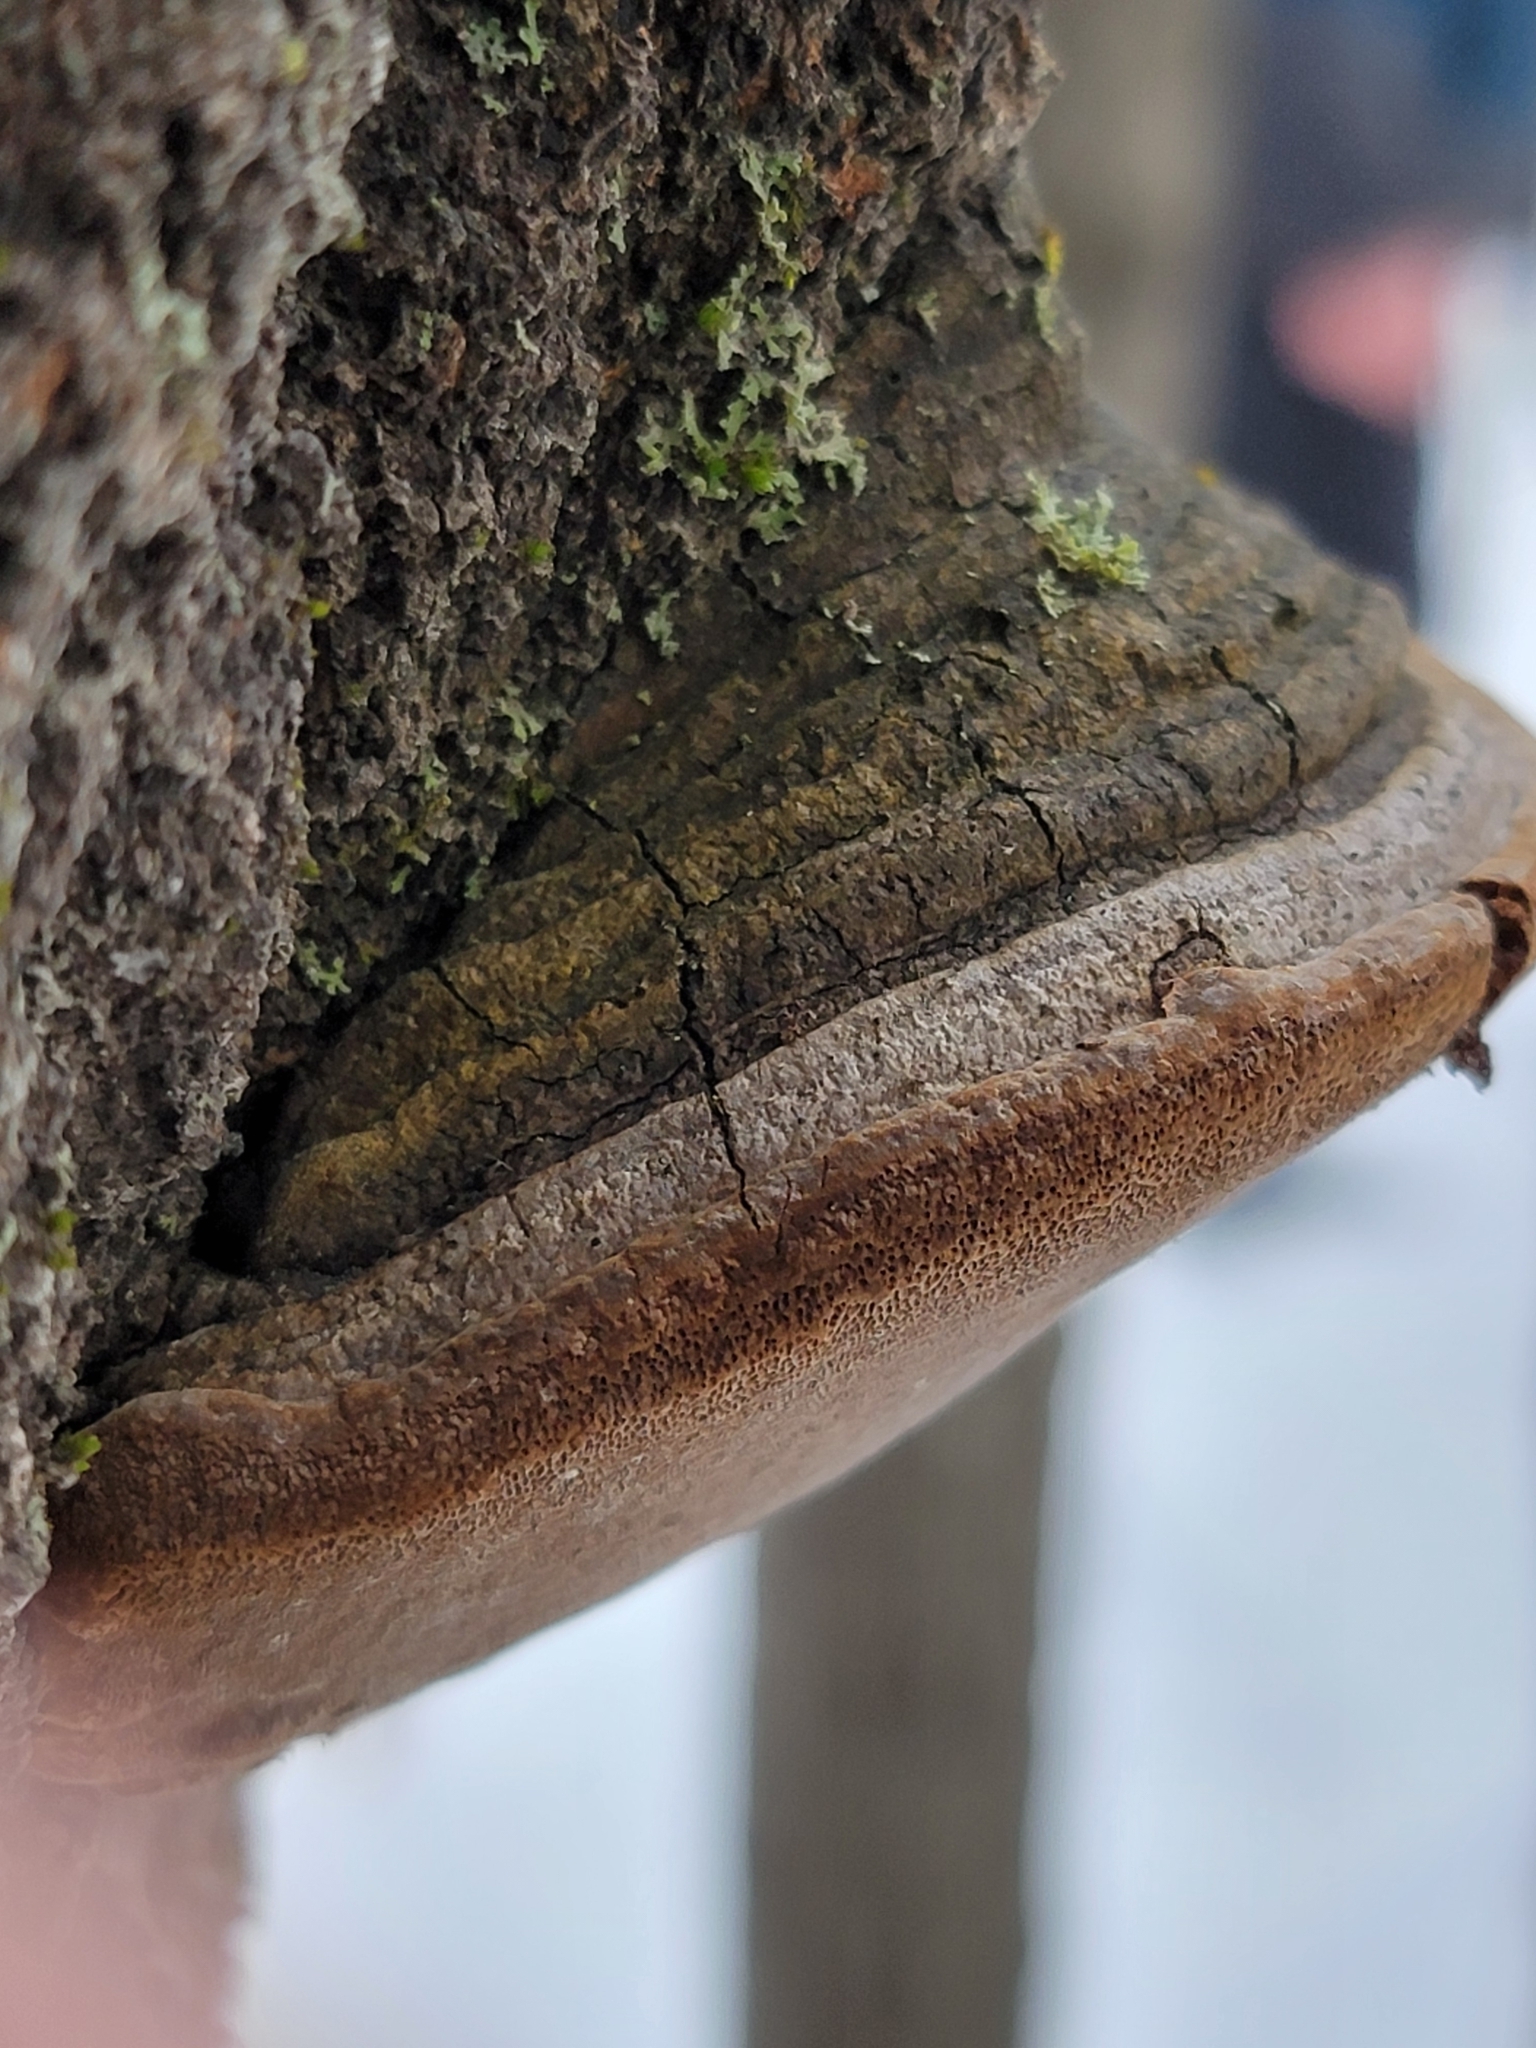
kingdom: Fungi
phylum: Basidiomycota
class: Agaricomycetes
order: Hymenochaetales
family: Hymenochaetaceae
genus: Phellinus
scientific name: Phellinus tremulae
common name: Aspen bracket
